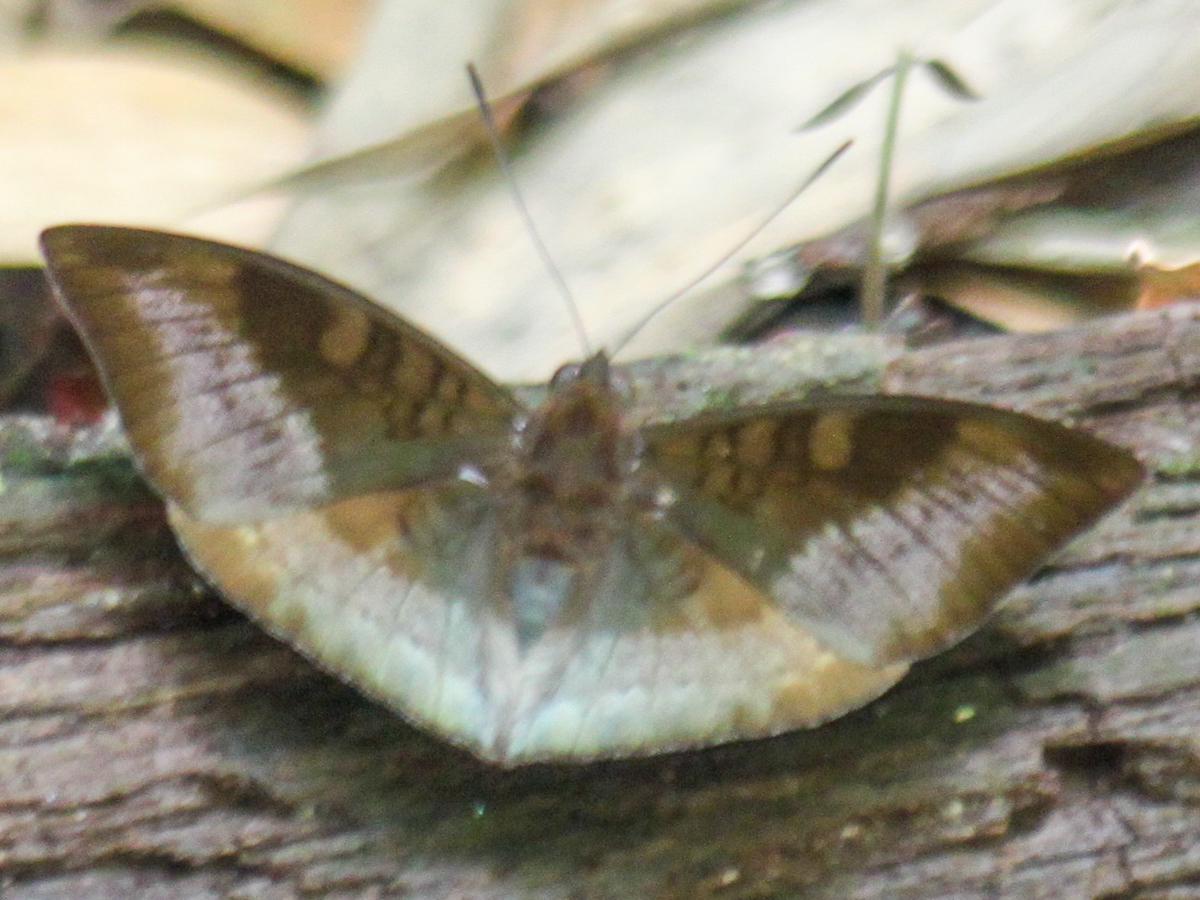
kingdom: Animalia
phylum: Arthropoda
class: Insecta
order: Lepidoptera
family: Nymphalidae
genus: Euthalia
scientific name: Euthalia monina
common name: Powdered baron
